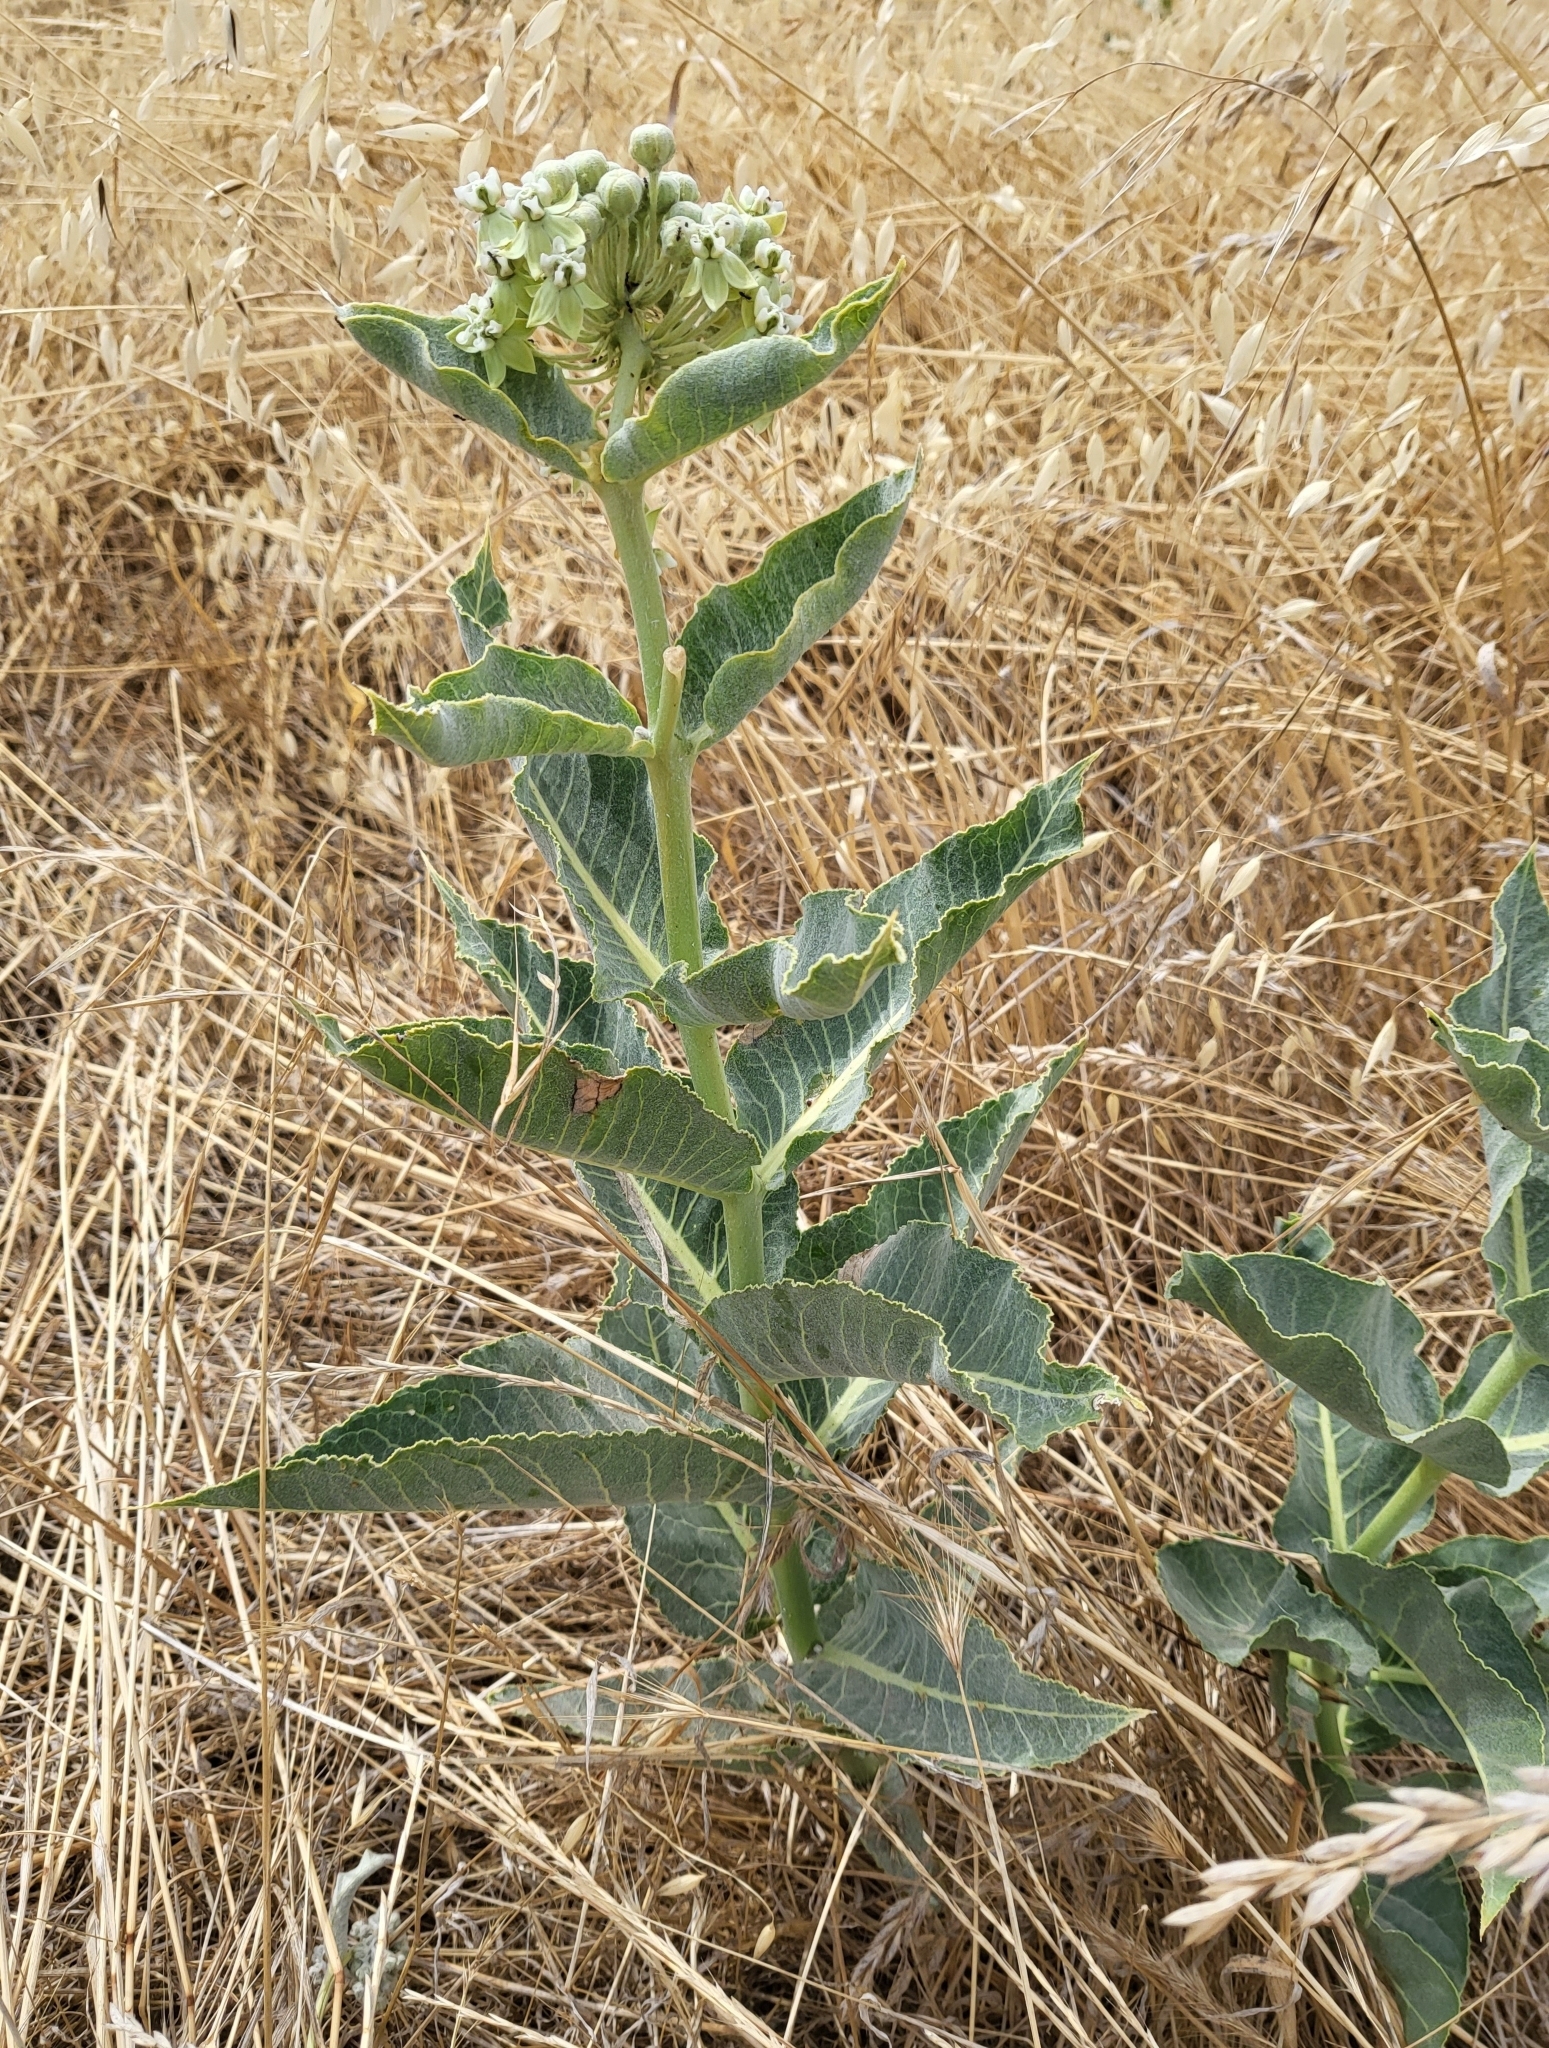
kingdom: Plantae
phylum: Tracheophyta
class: Magnoliopsida
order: Gentianales
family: Apocynaceae
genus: Asclepias
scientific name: Asclepias erosa
